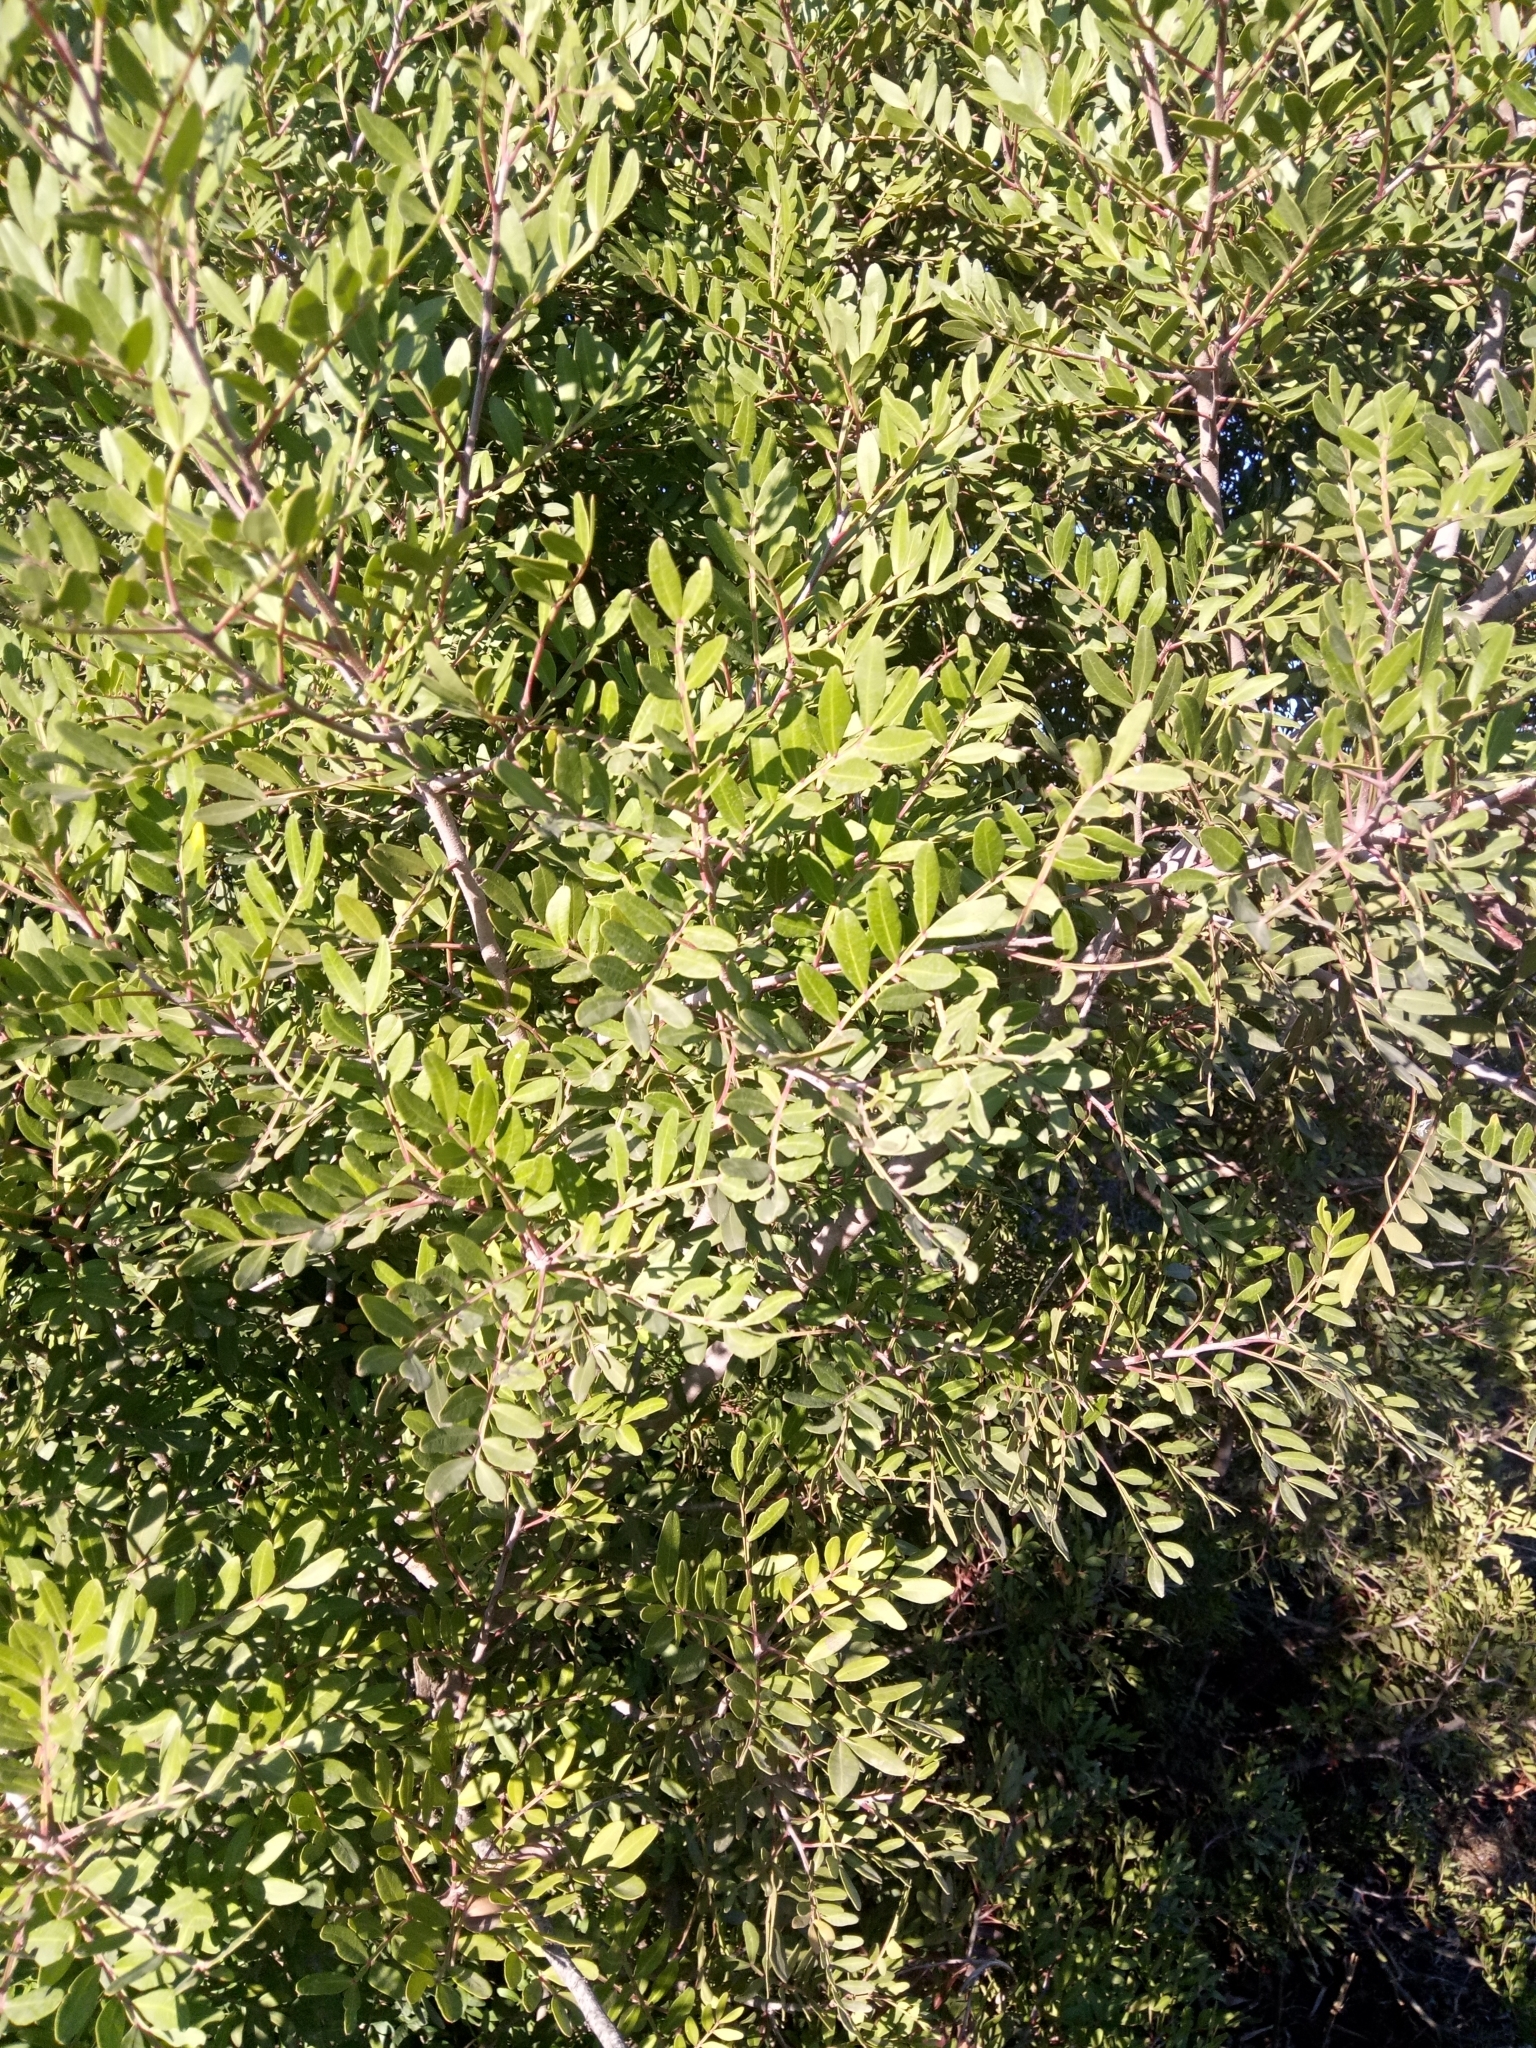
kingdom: Plantae
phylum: Tracheophyta
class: Magnoliopsida
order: Sapindales
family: Anacardiaceae
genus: Pistacia
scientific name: Pistacia lentiscus
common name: Lentisk
